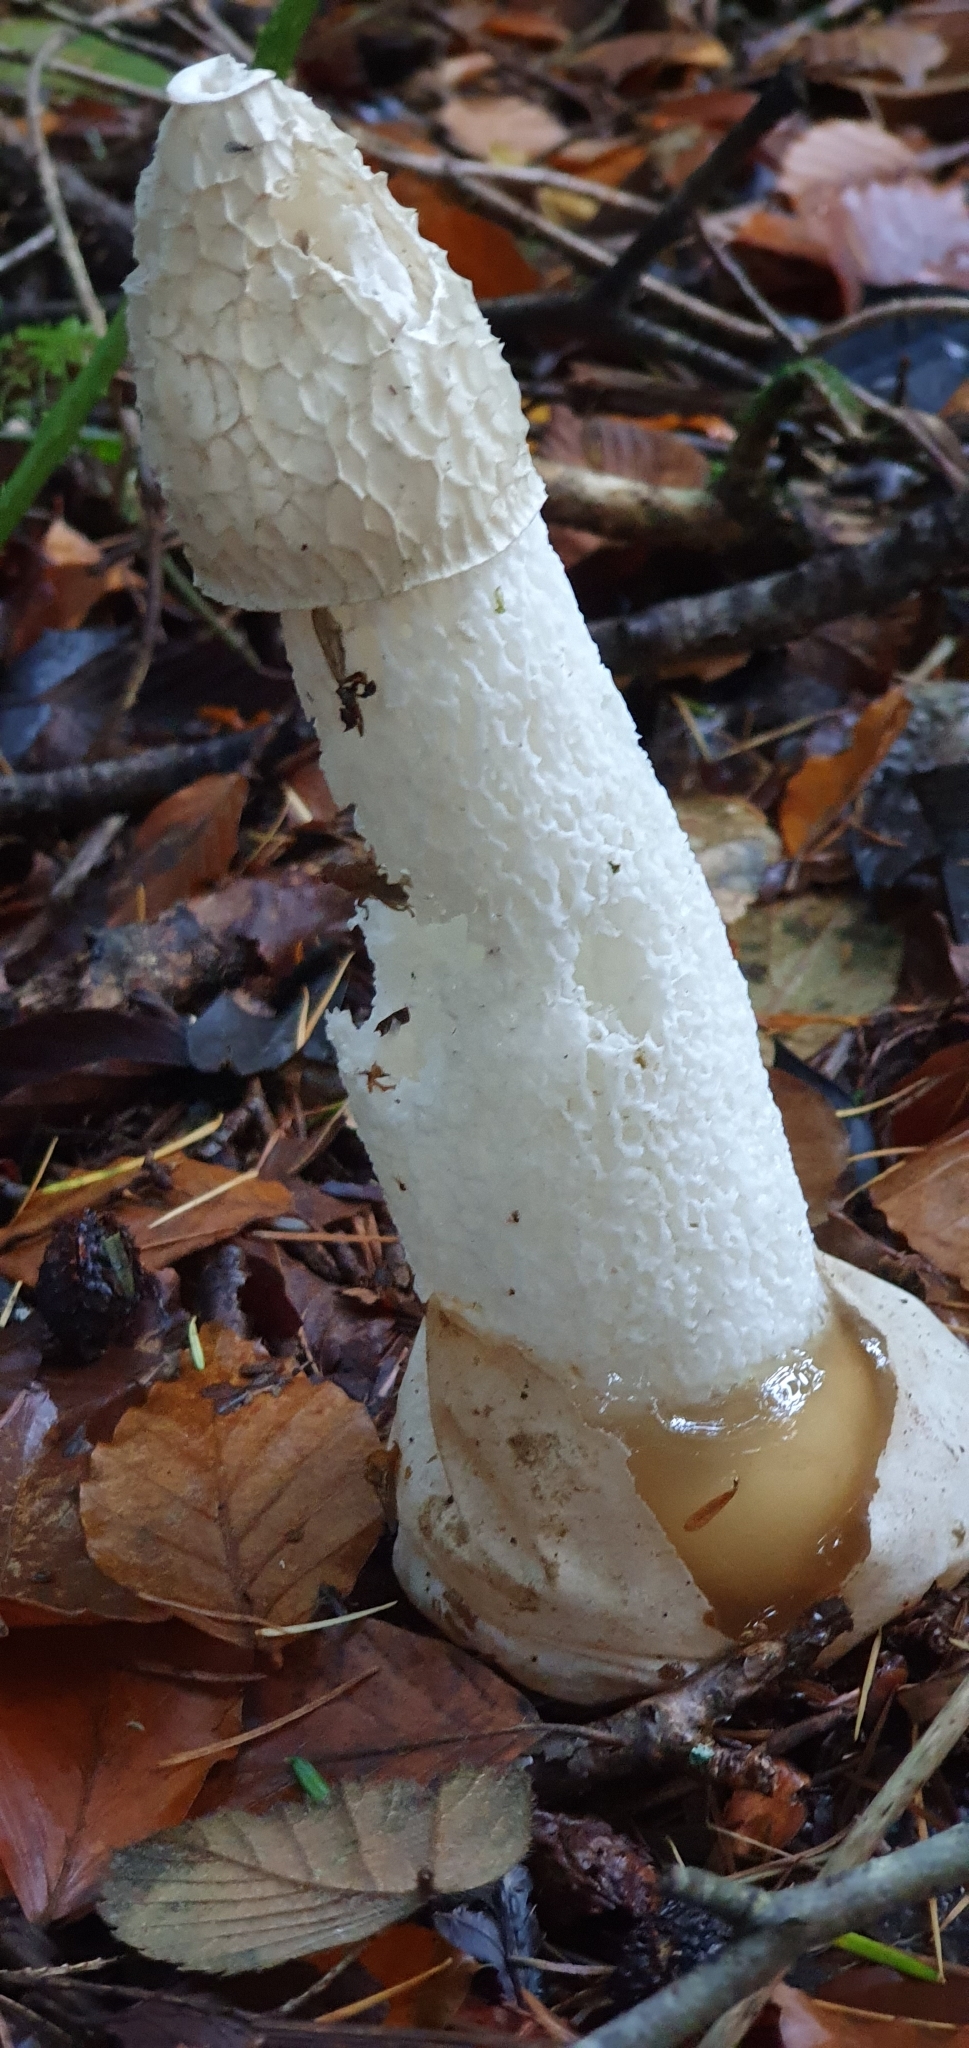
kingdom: Fungi
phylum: Basidiomycota
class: Agaricomycetes
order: Phallales
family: Phallaceae
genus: Phallus
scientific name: Phallus impudicus
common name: Common stinkhorn
